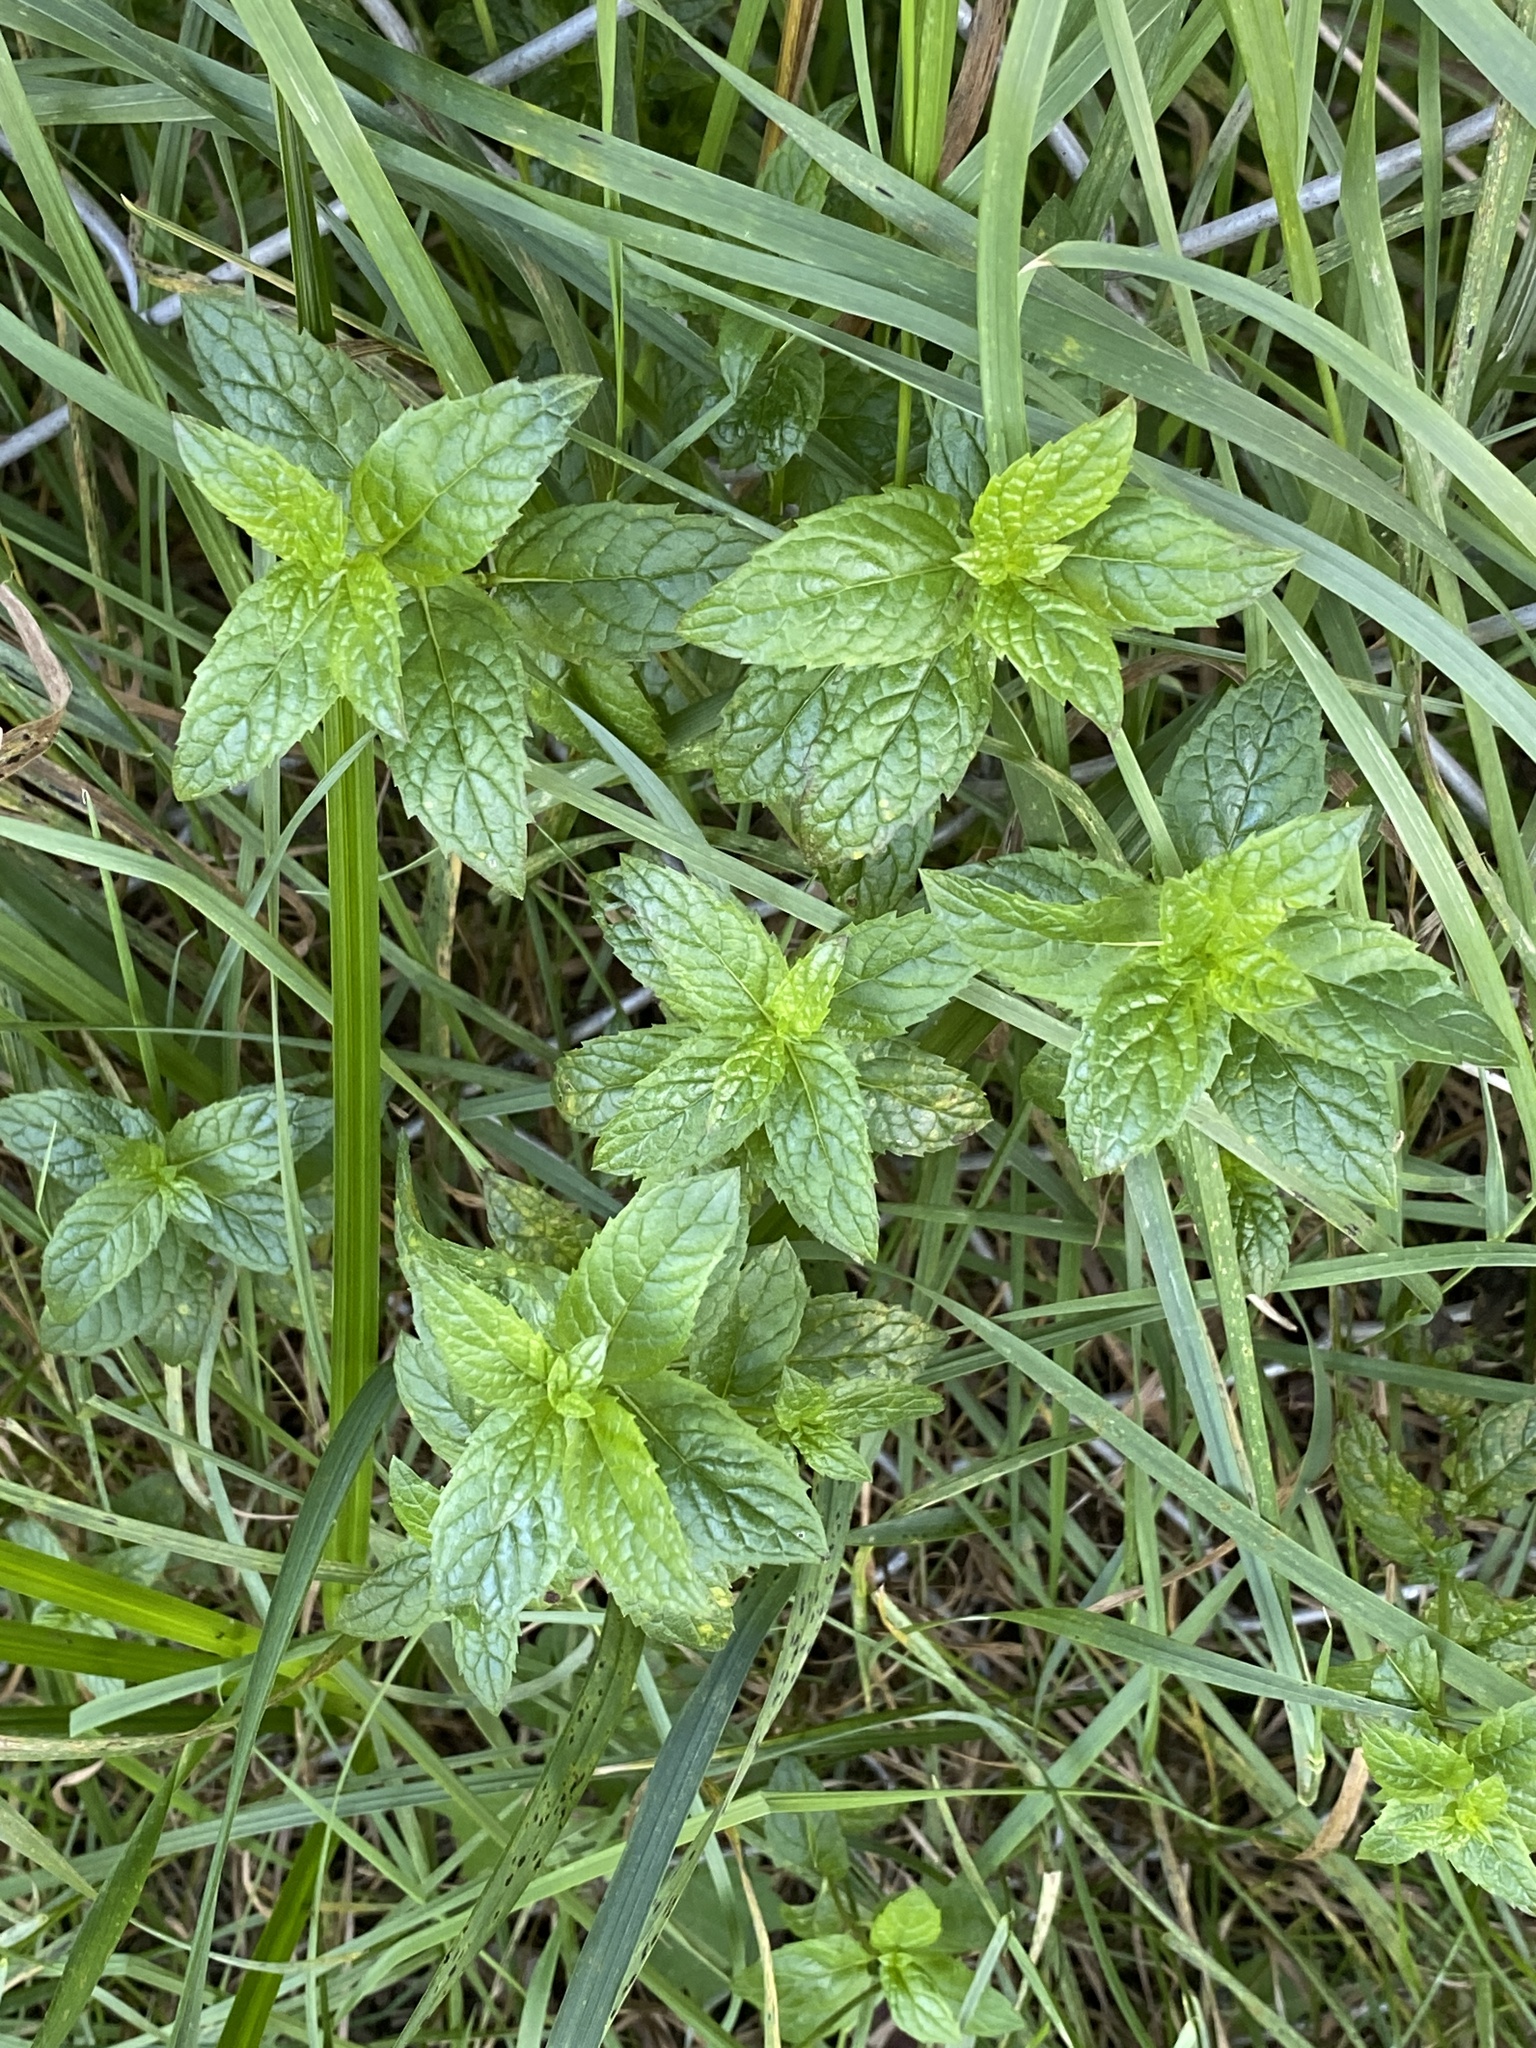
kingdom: Plantae
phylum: Tracheophyta
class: Magnoliopsida
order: Lamiales
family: Lamiaceae
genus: Mentha
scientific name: Mentha spicata
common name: Spearmint
